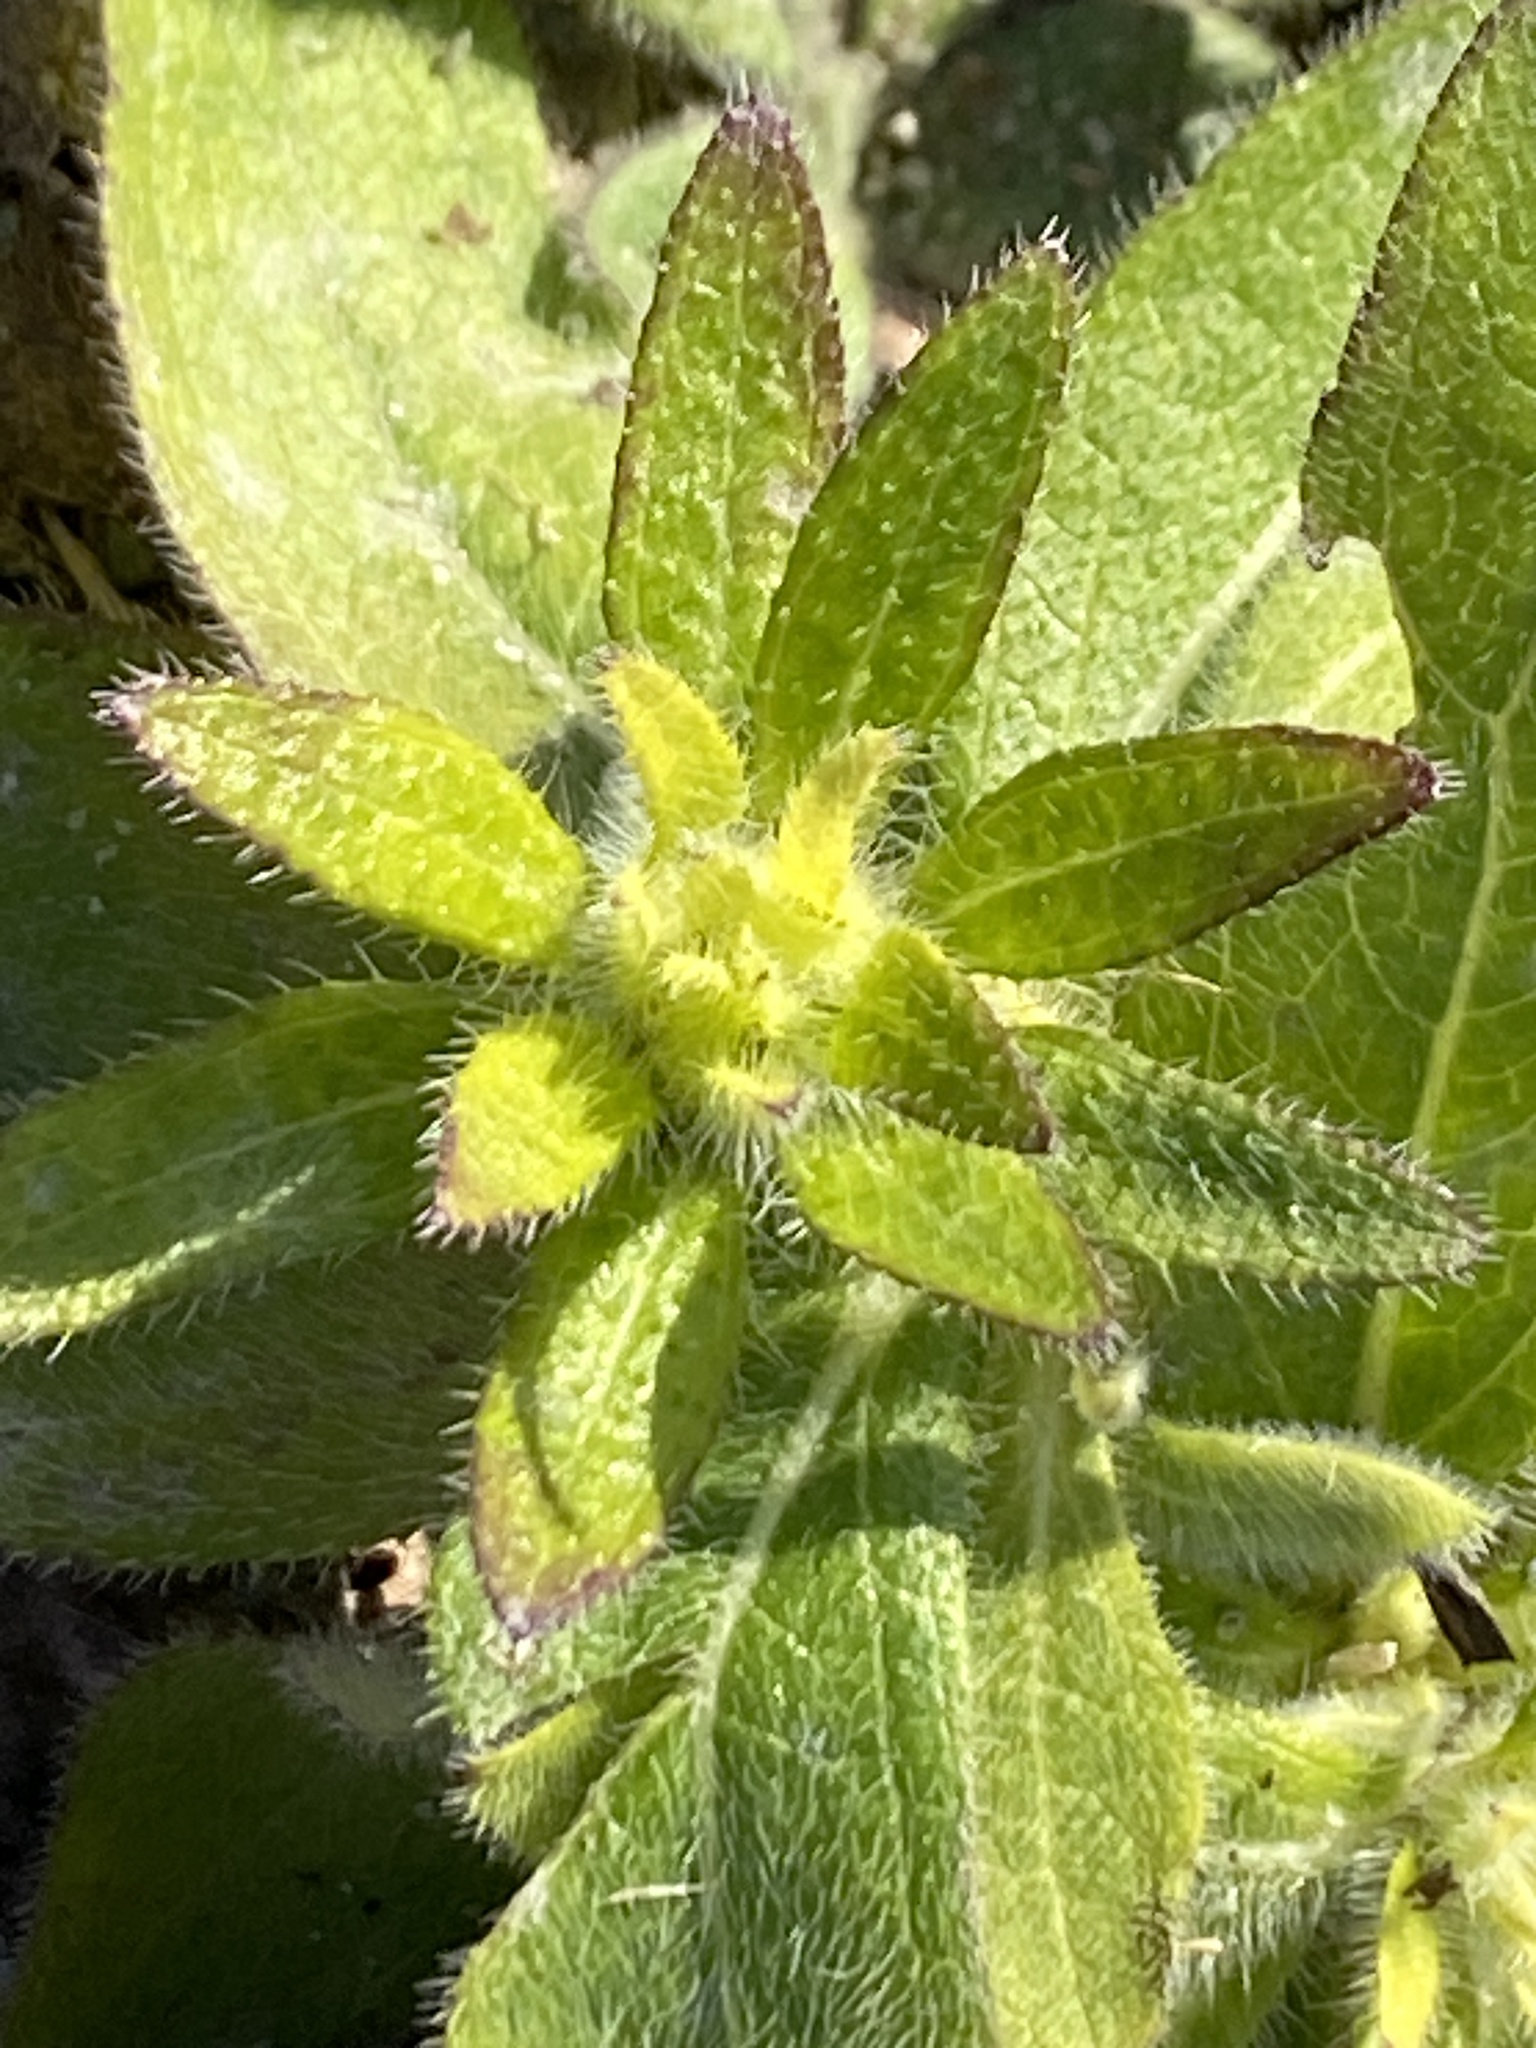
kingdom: Plantae
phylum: Tracheophyta
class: Magnoliopsida
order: Asterales
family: Asteraceae
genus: Rudbeckia
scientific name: Rudbeckia hirta
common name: Black-eyed-susan
